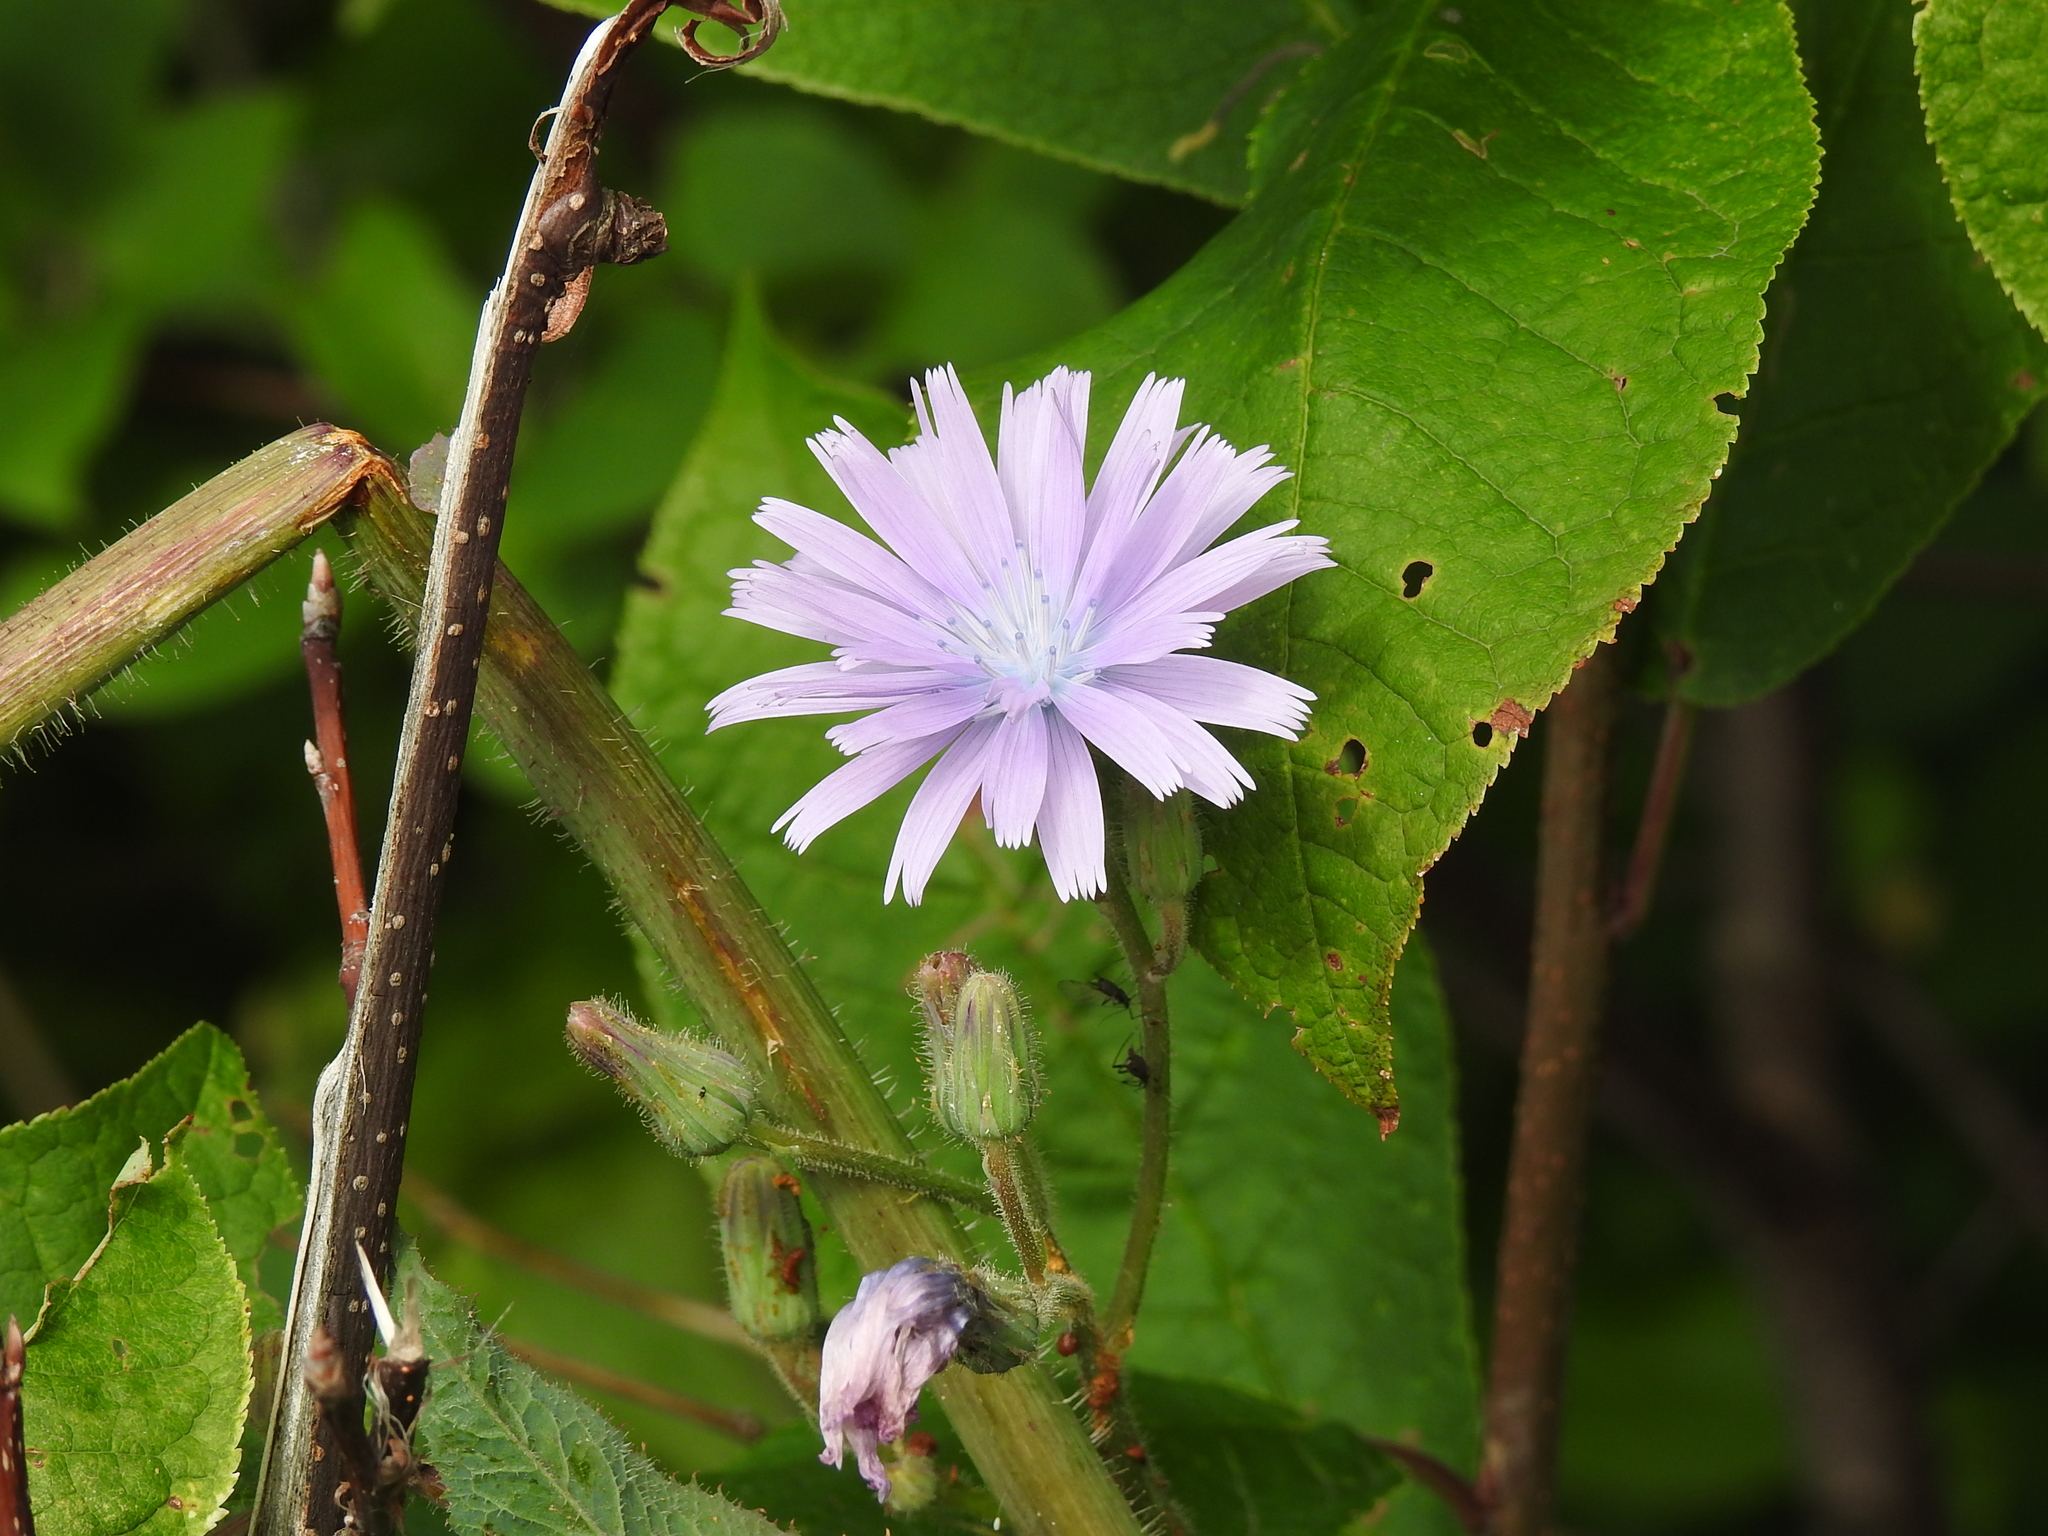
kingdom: Plantae
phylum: Tracheophyta
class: Magnoliopsida
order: Asterales
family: Asteraceae
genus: Lactuca
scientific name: Lactuca macrophylla
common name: Common blue-sow-thistle
